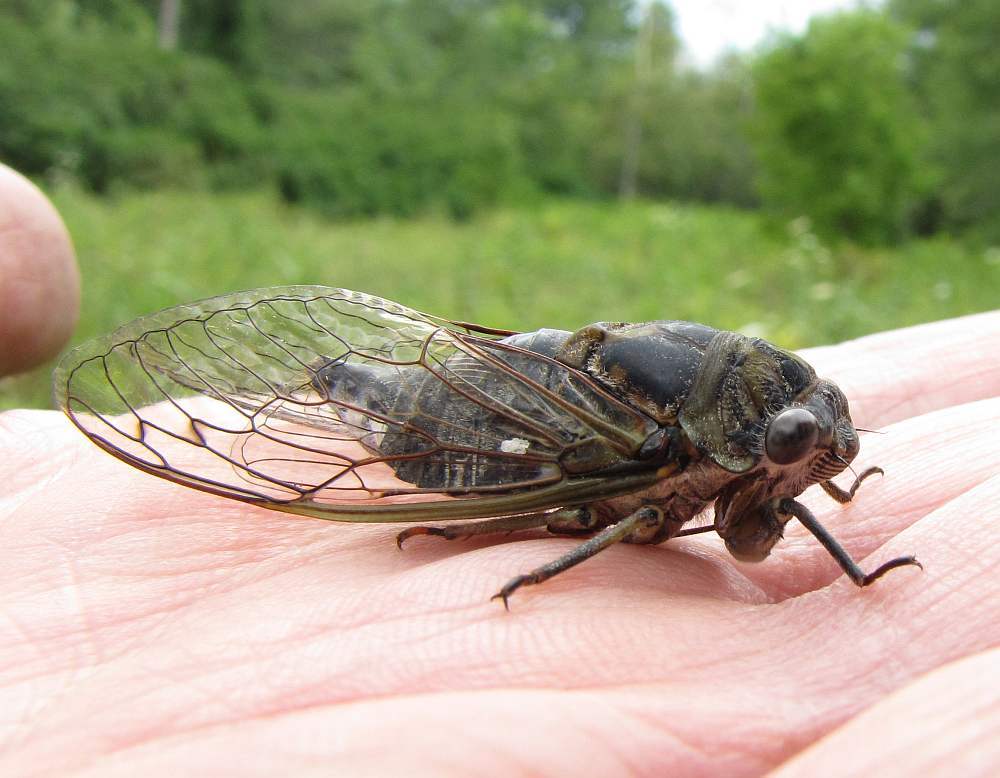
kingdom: Animalia
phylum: Arthropoda
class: Insecta
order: Hemiptera
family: Cicadidae
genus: Neotibicen
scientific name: Neotibicen canicularis
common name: God-day cicada
